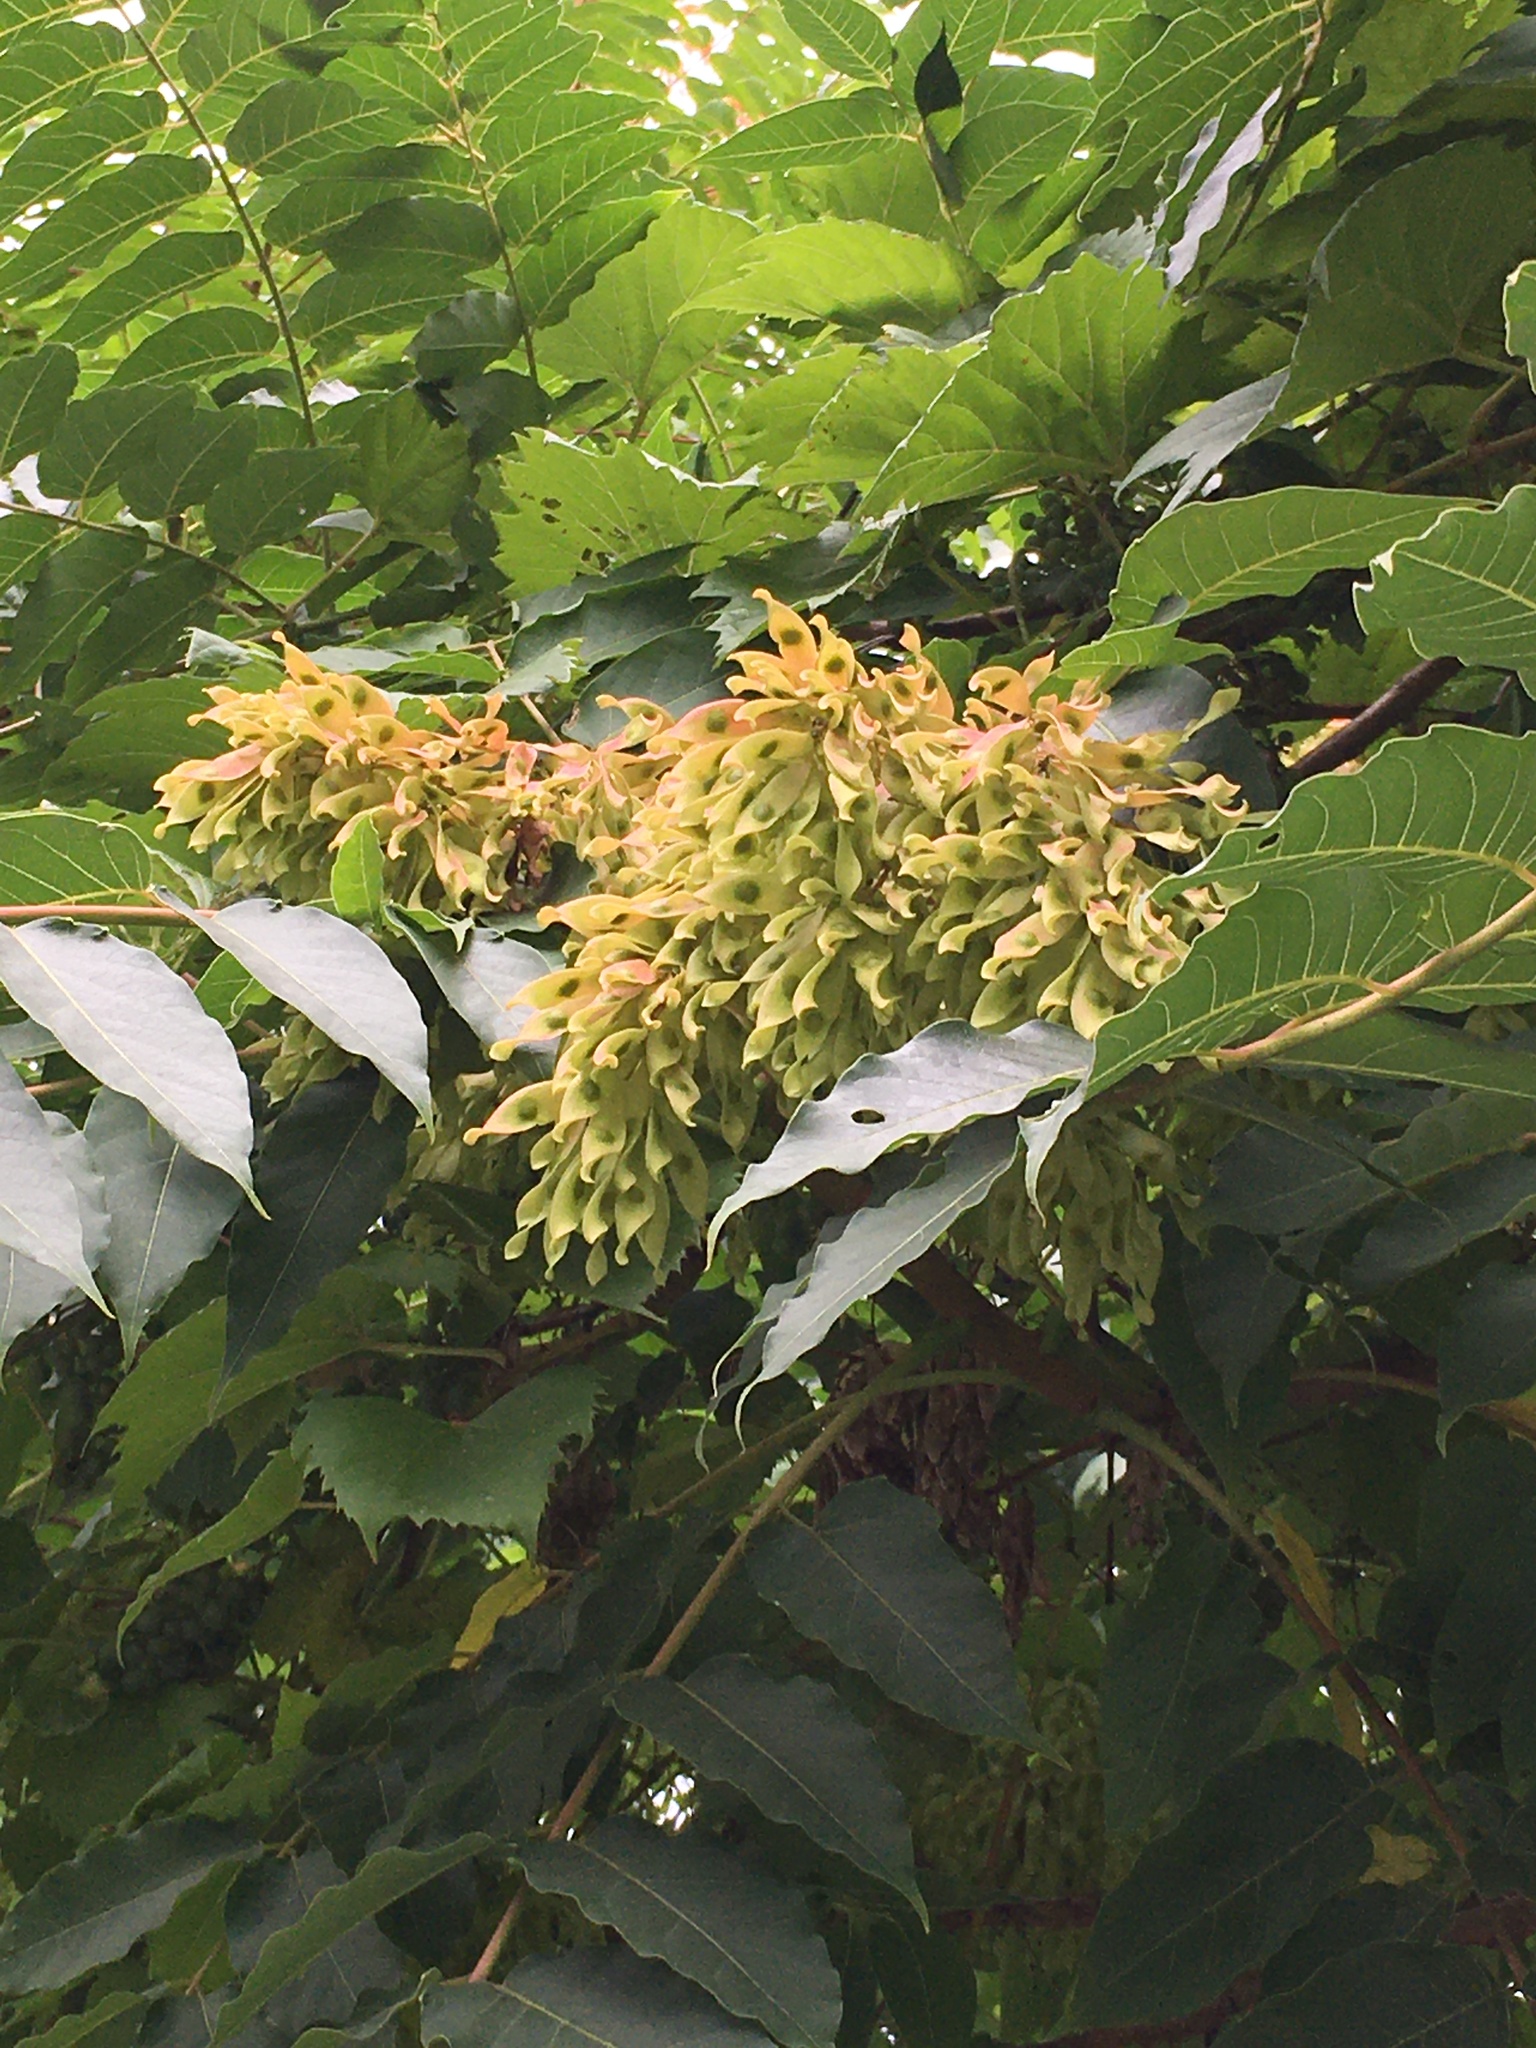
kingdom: Plantae
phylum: Tracheophyta
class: Magnoliopsida
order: Sapindales
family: Simaroubaceae
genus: Ailanthus
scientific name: Ailanthus altissima
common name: Tree-of-heaven
